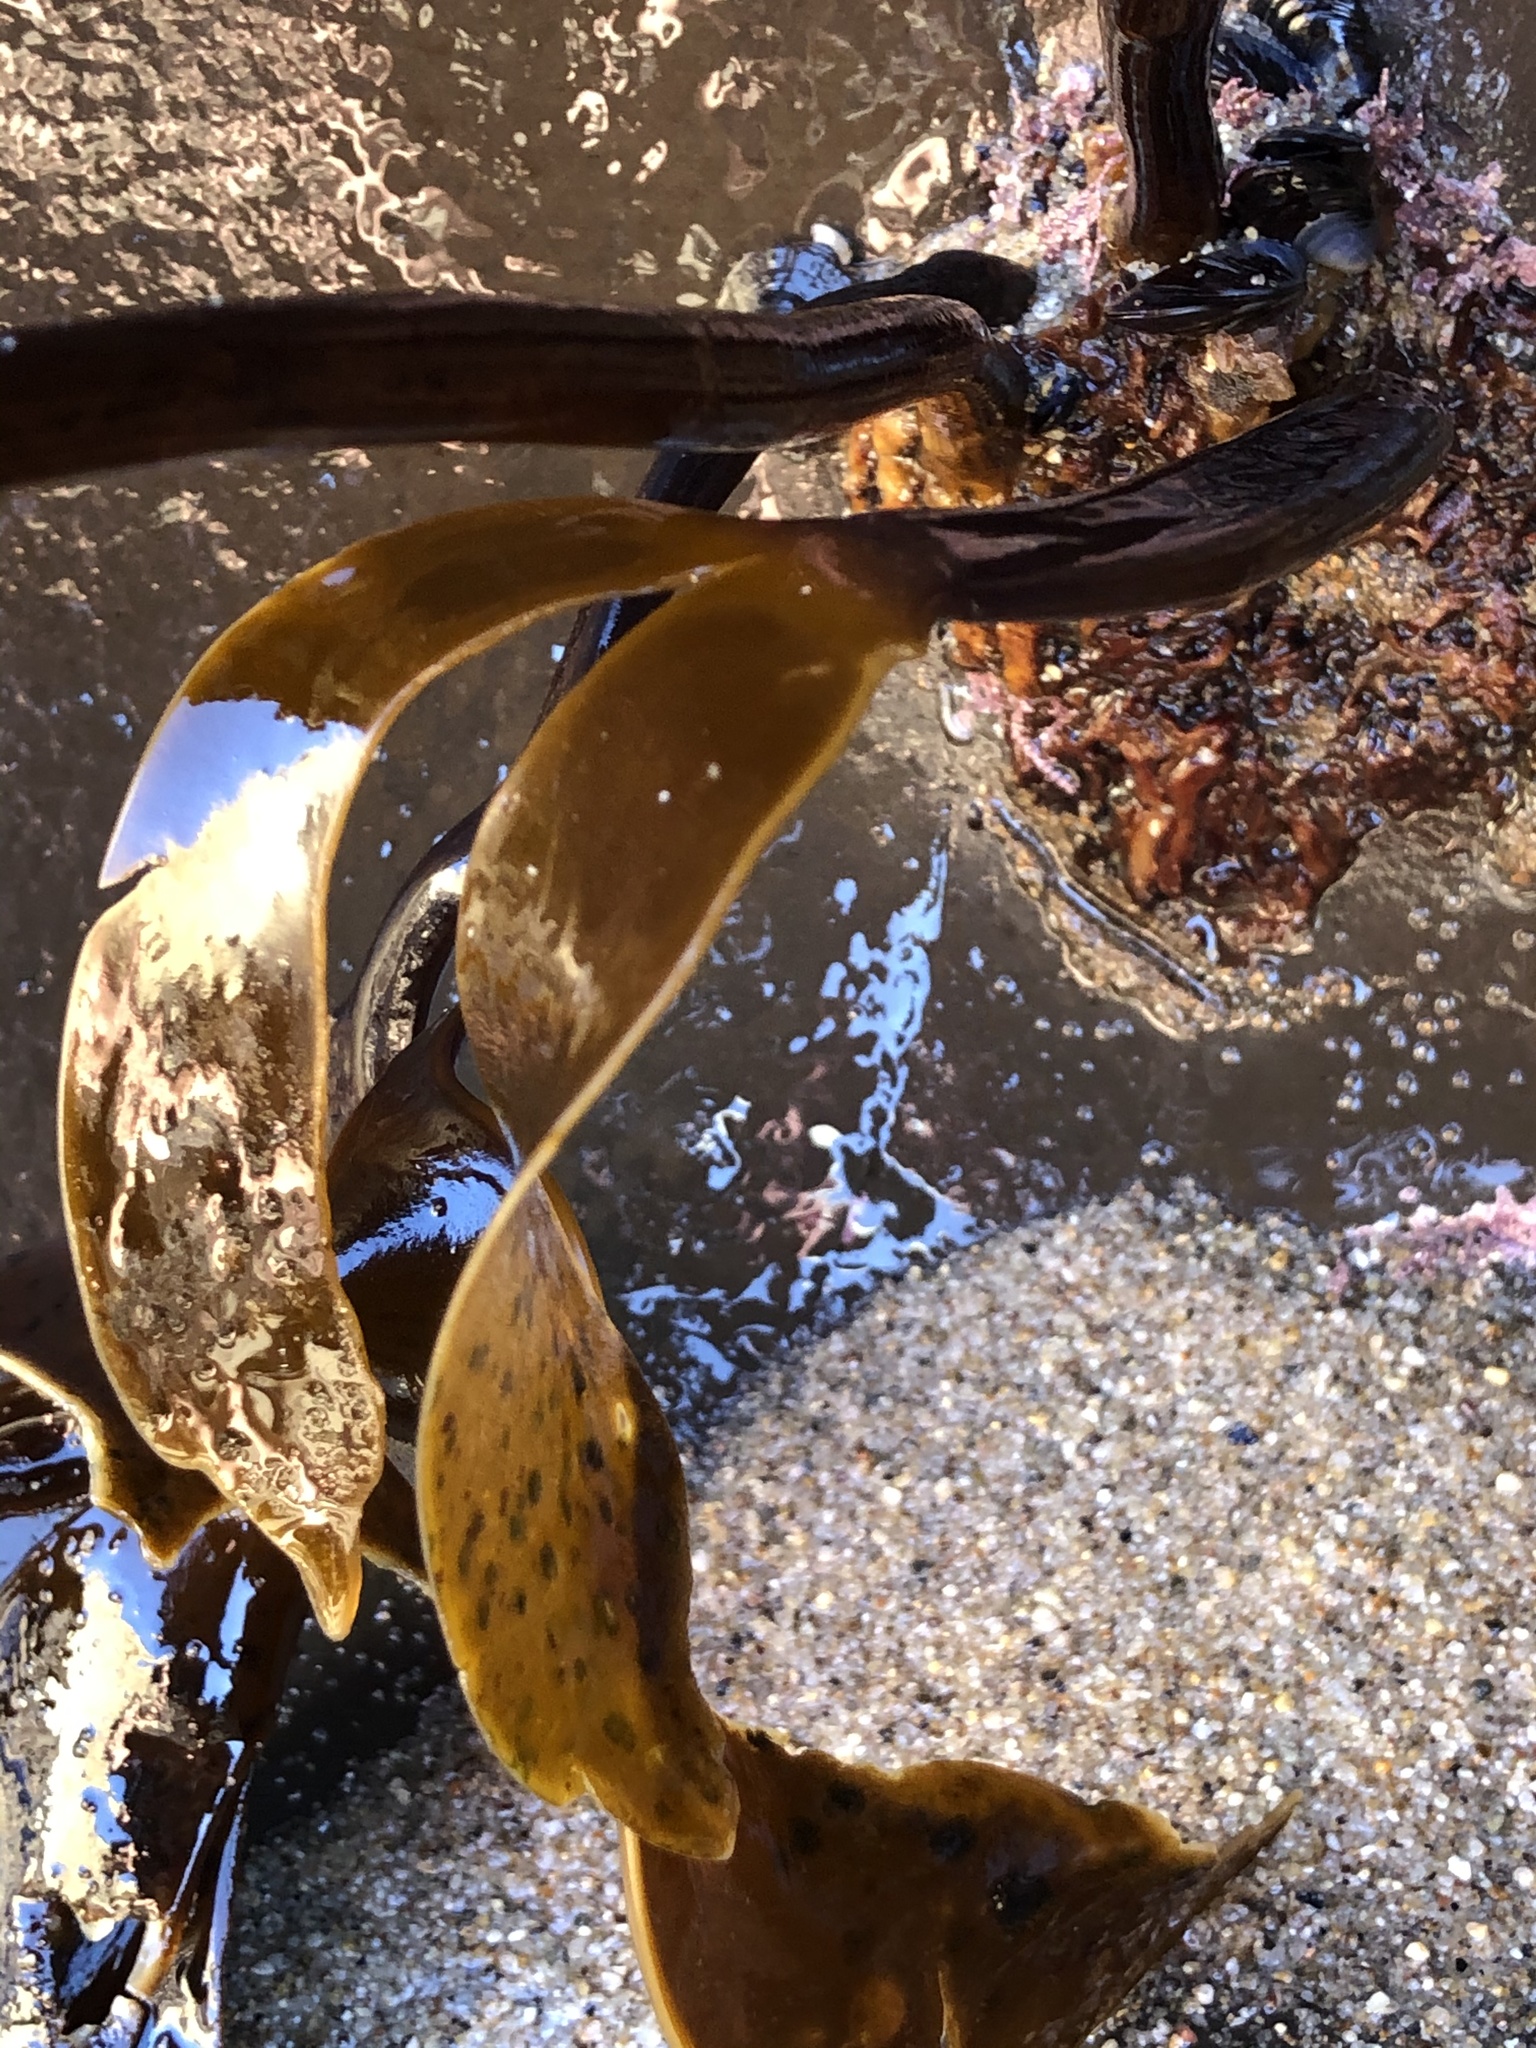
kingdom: Chromista
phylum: Ochrophyta
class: Phaeophyceae
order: Laminariales
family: Laminariaceae
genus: Laminaria
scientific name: Laminaria setchellii
